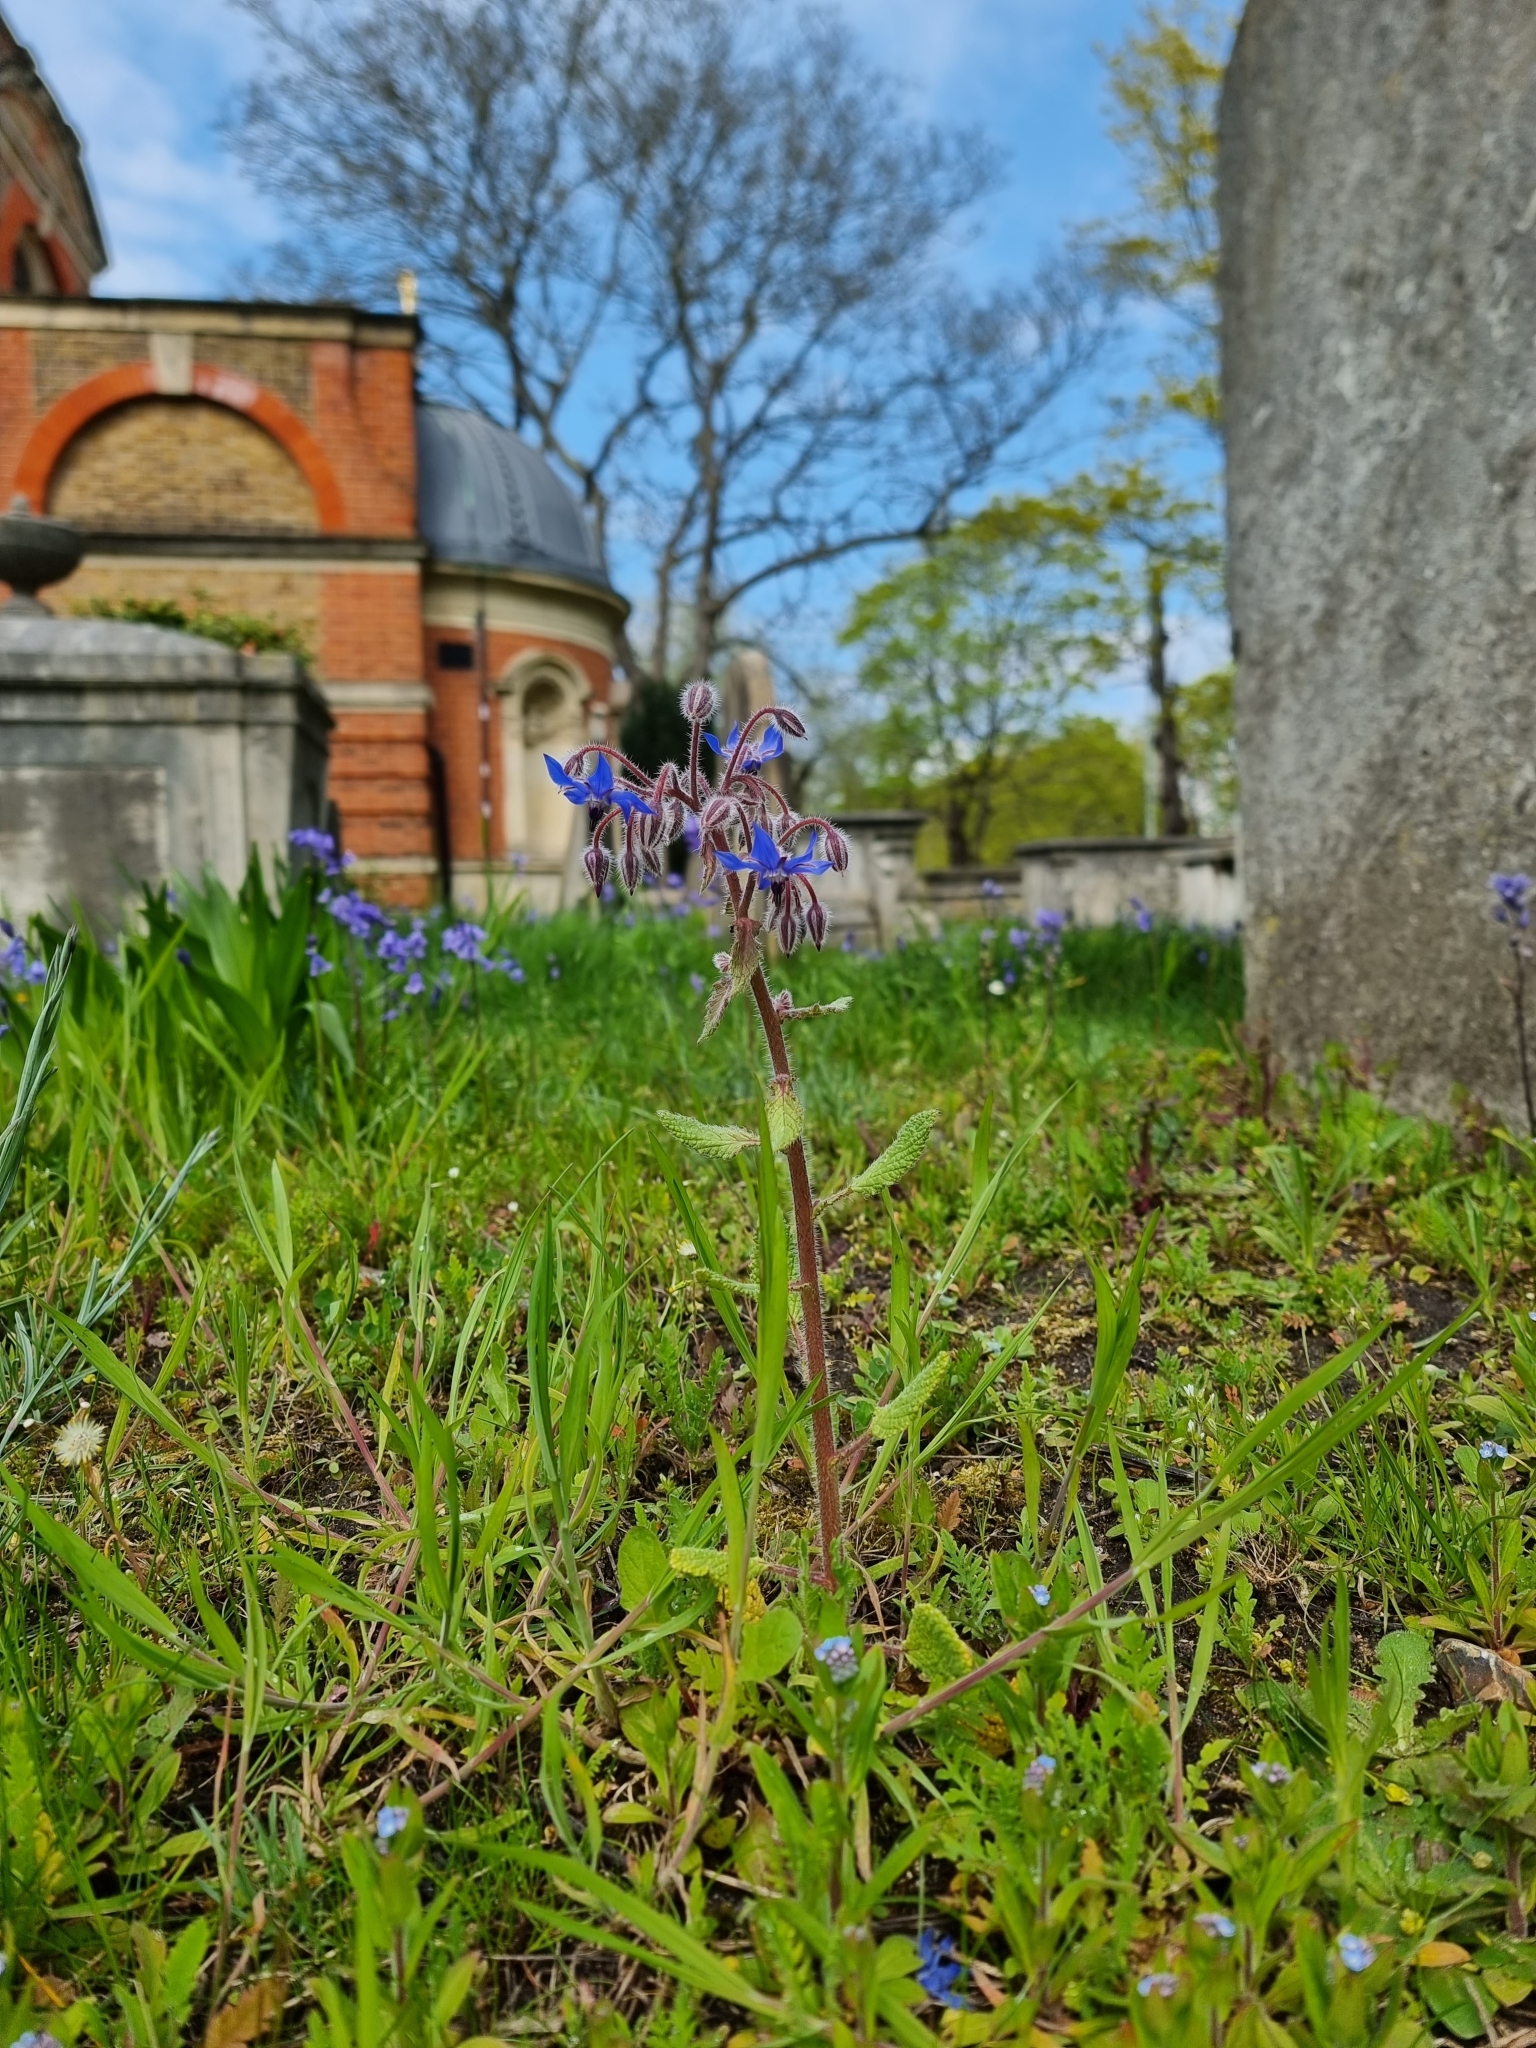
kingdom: Plantae
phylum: Tracheophyta
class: Magnoliopsida
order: Boraginales
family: Boraginaceae
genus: Borago
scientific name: Borago officinalis
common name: Borage
